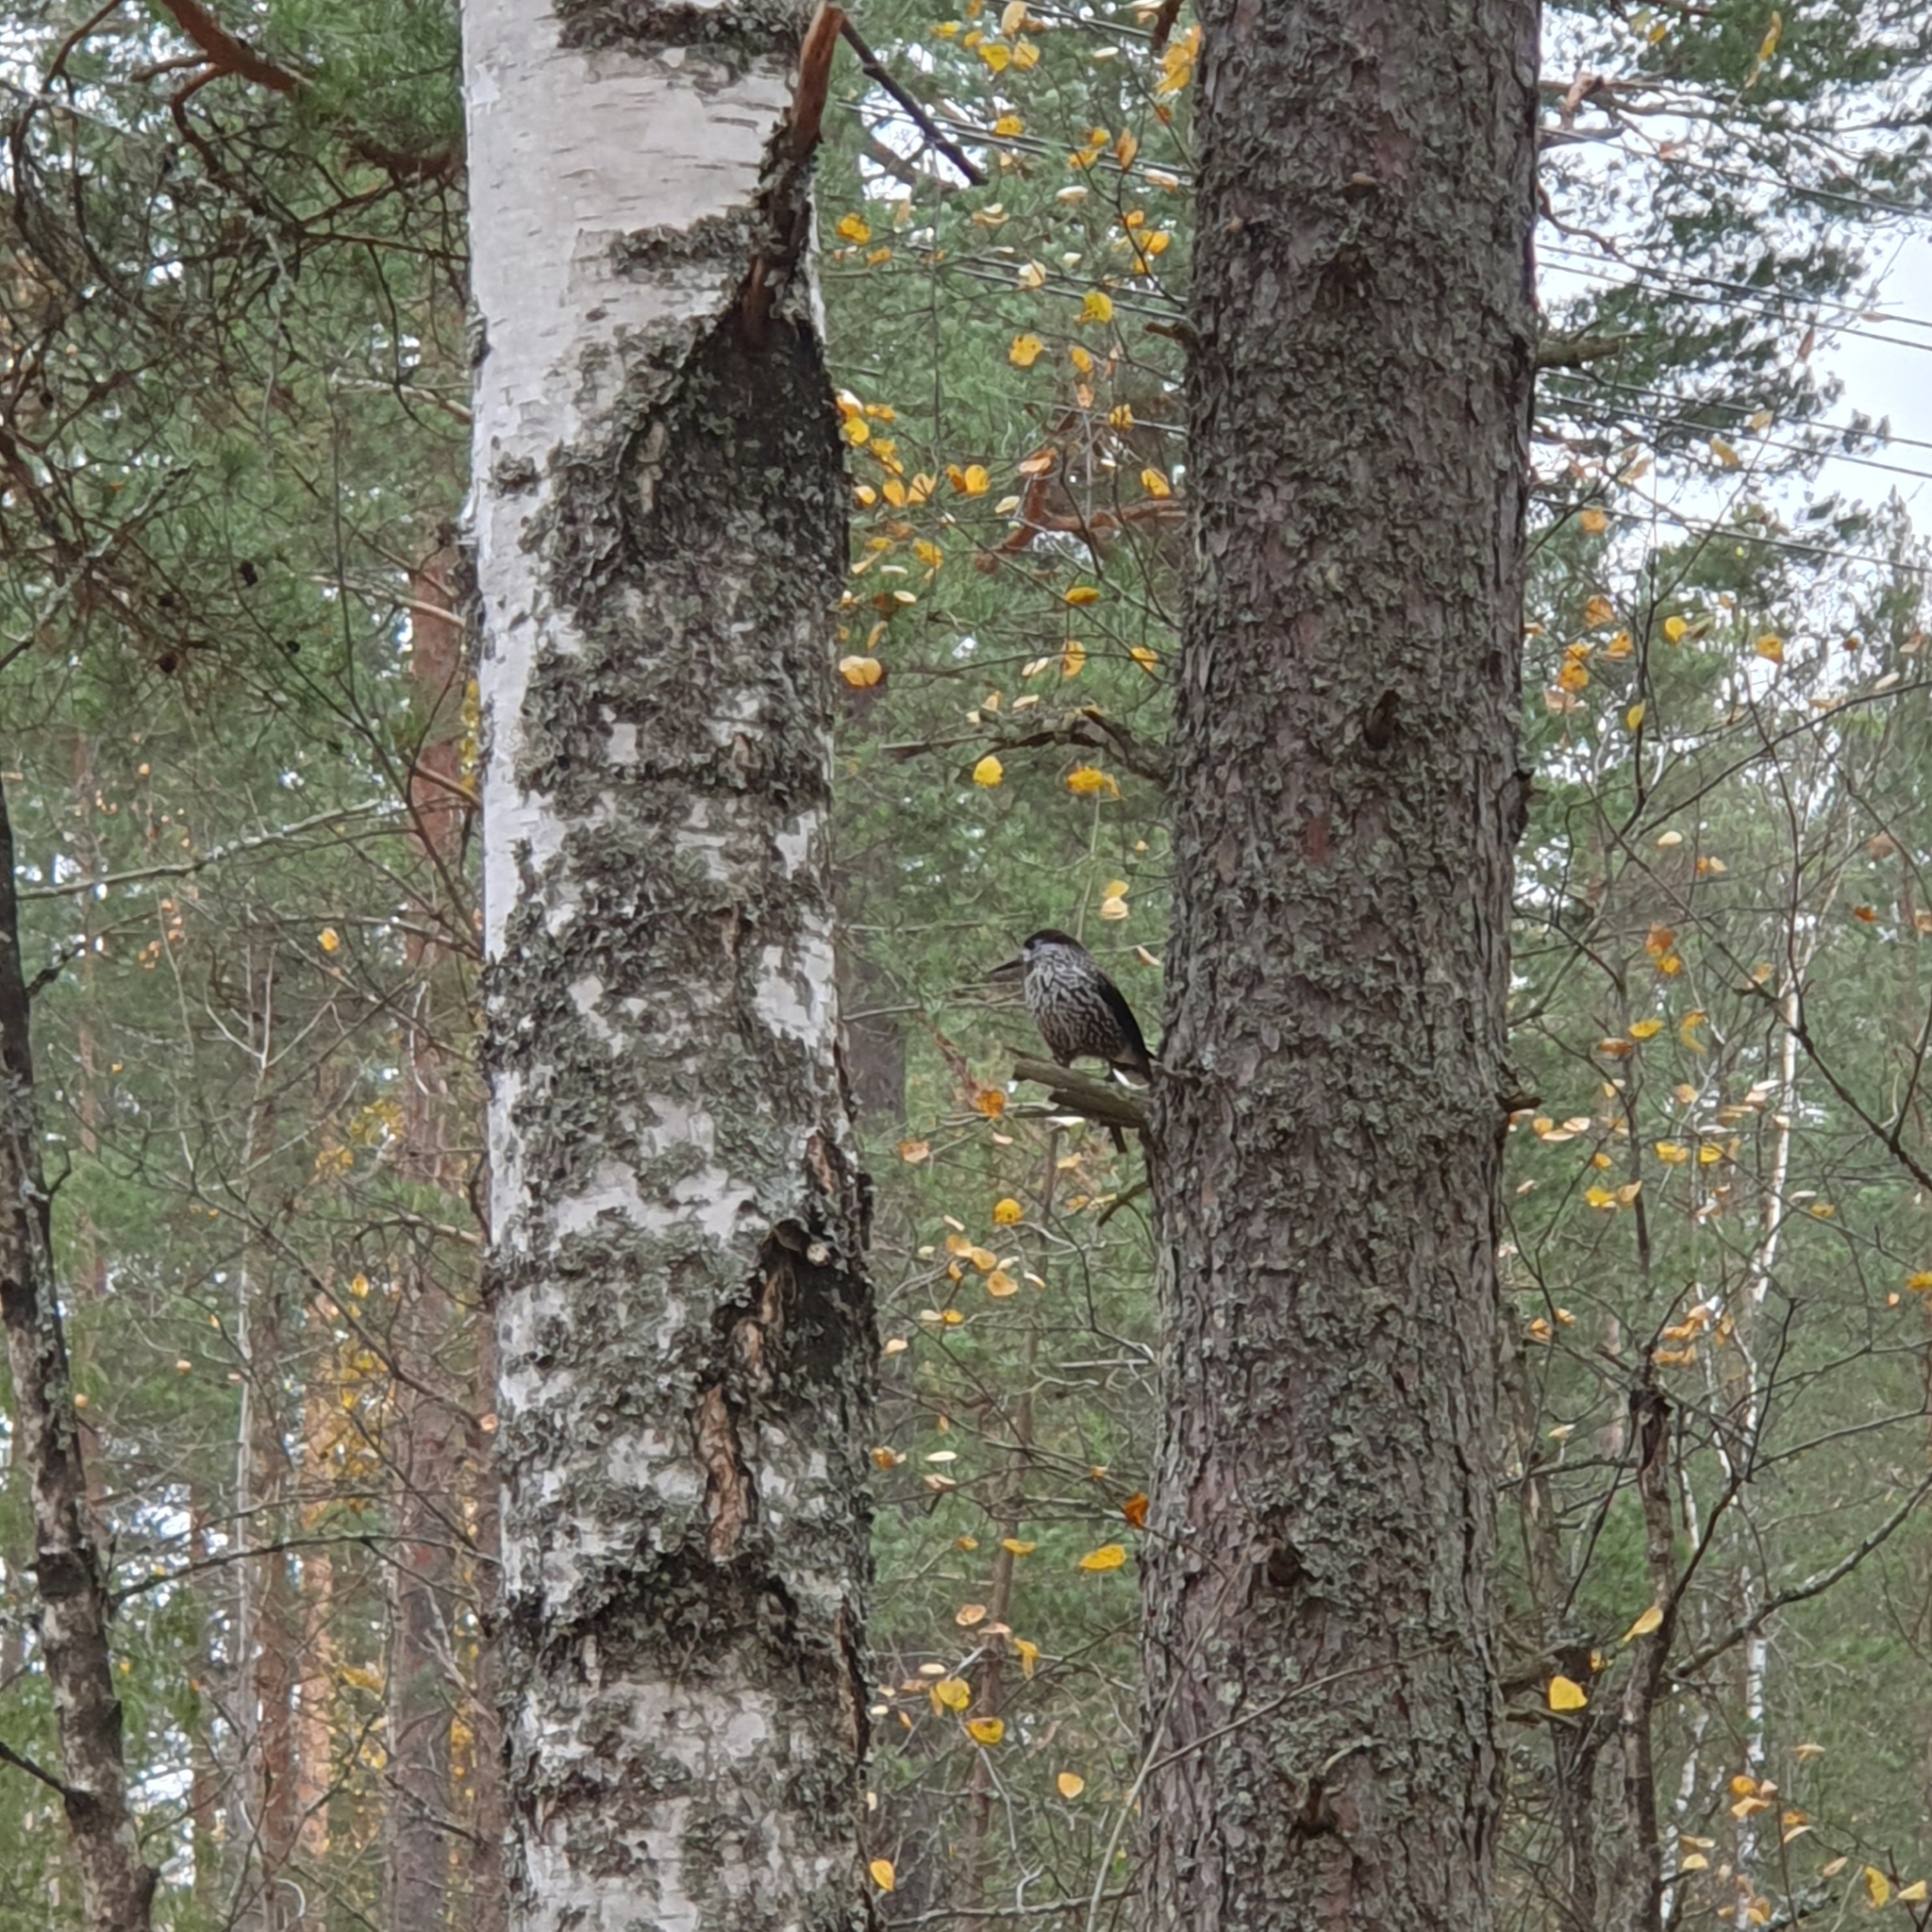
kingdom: Animalia
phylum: Chordata
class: Aves
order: Passeriformes
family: Corvidae
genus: Nucifraga
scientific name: Nucifraga caryocatactes
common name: Spotted nutcracker
